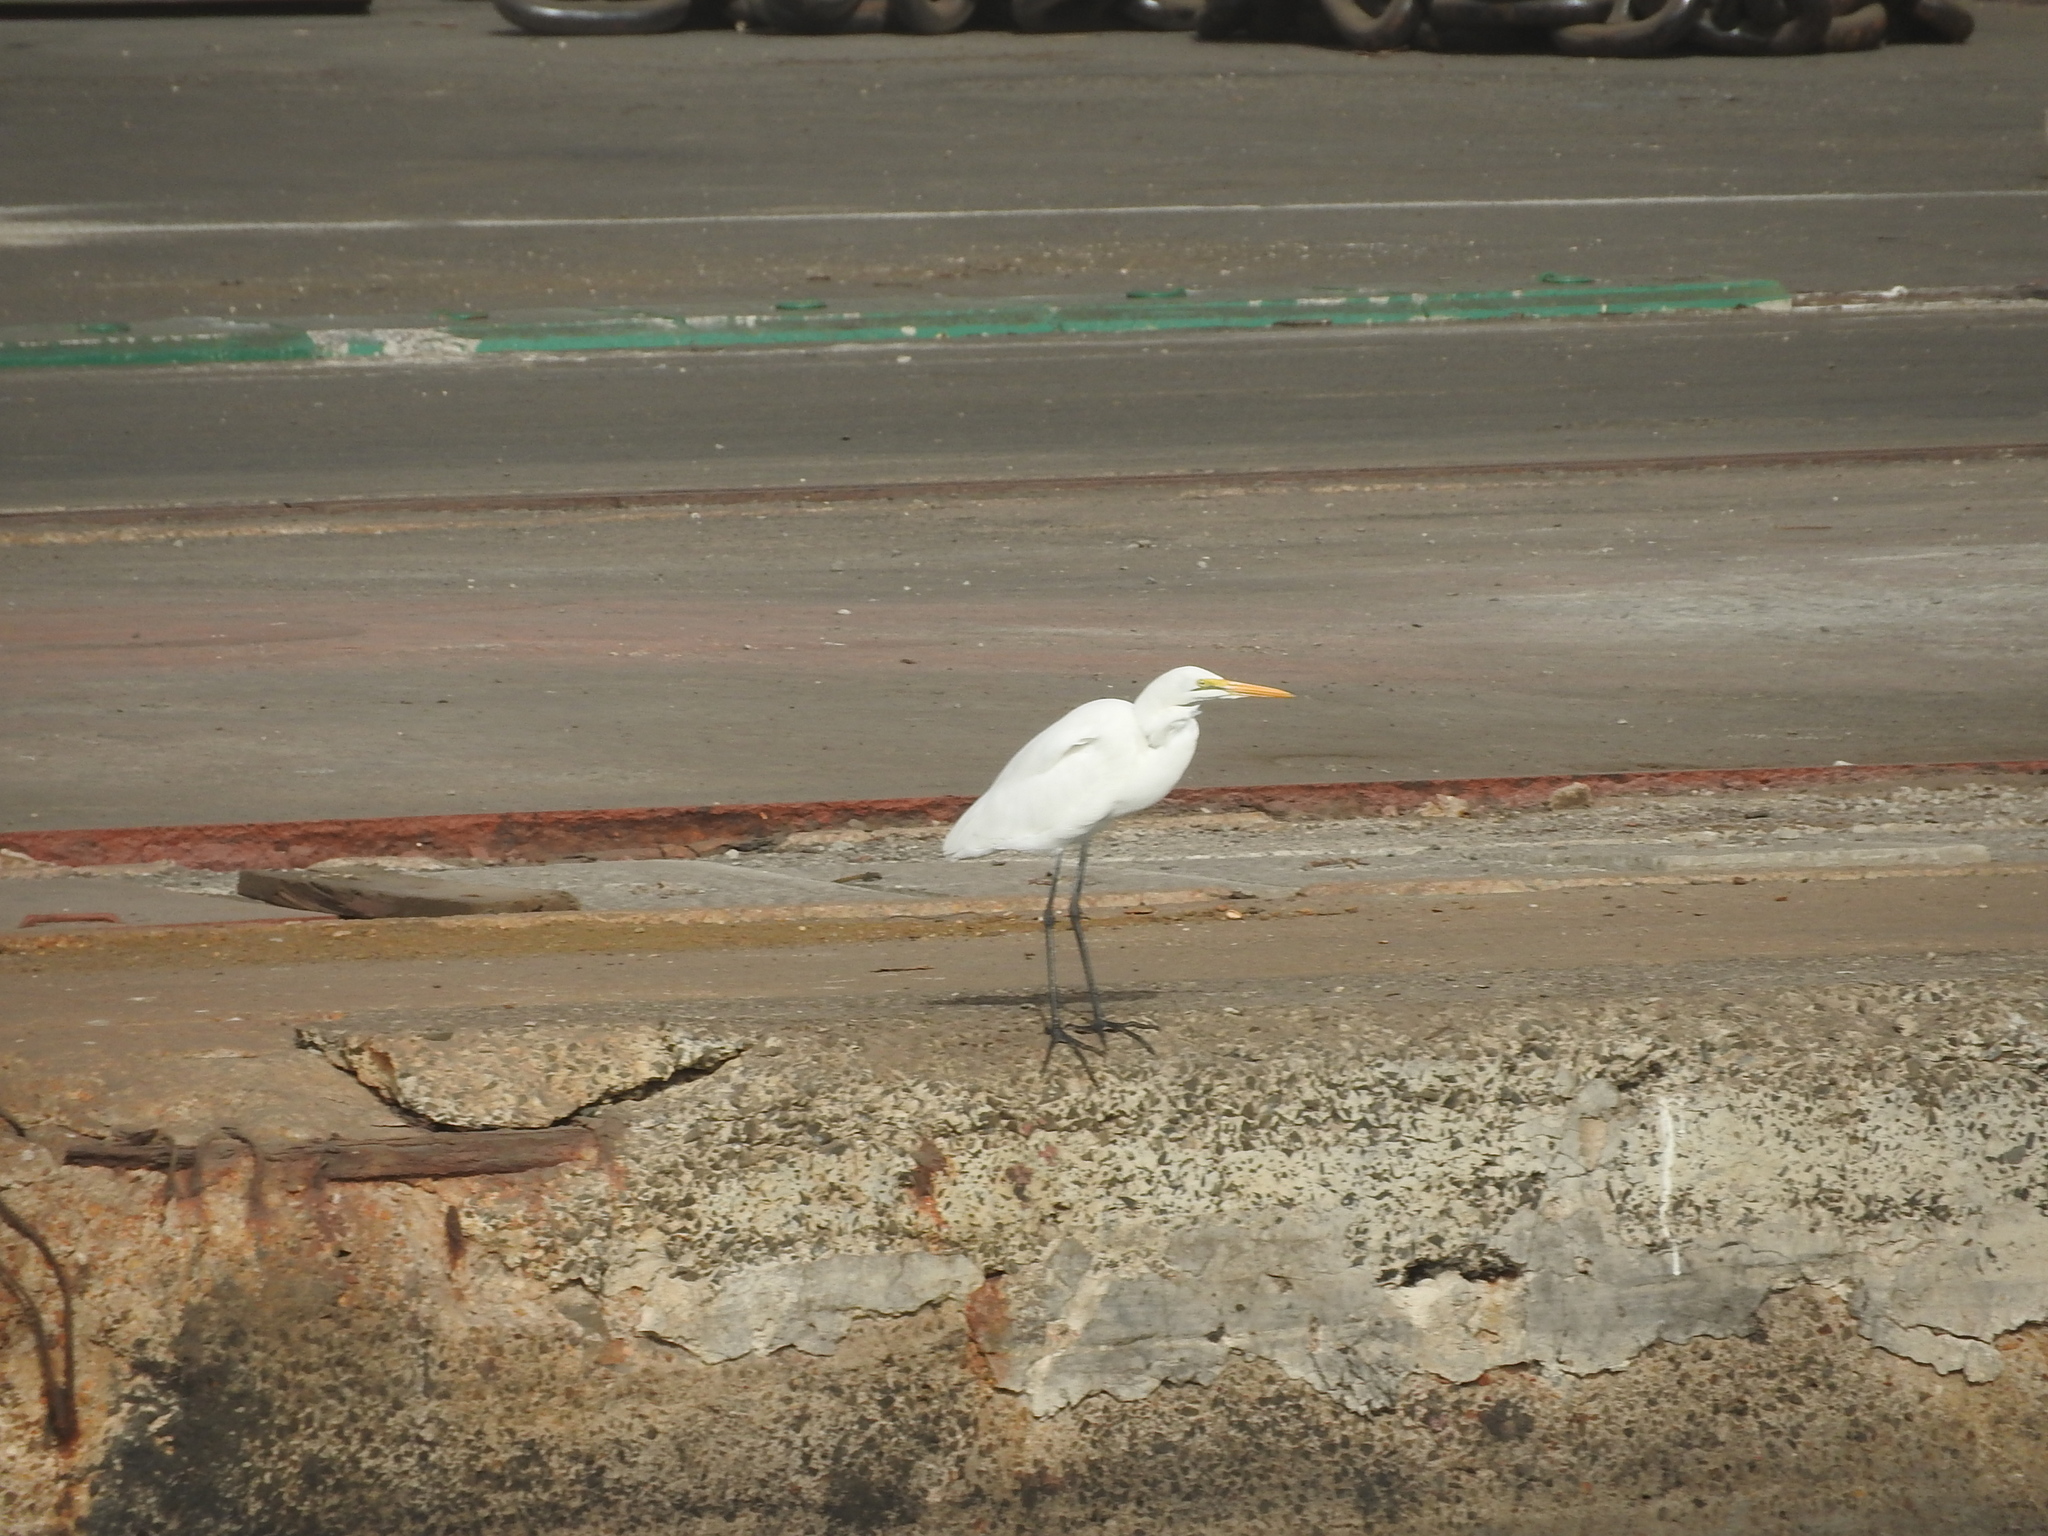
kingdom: Animalia
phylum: Chordata
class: Aves
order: Pelecaniformes
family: Ardeidae
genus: Ardea
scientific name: Ardea alba
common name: Great egret
